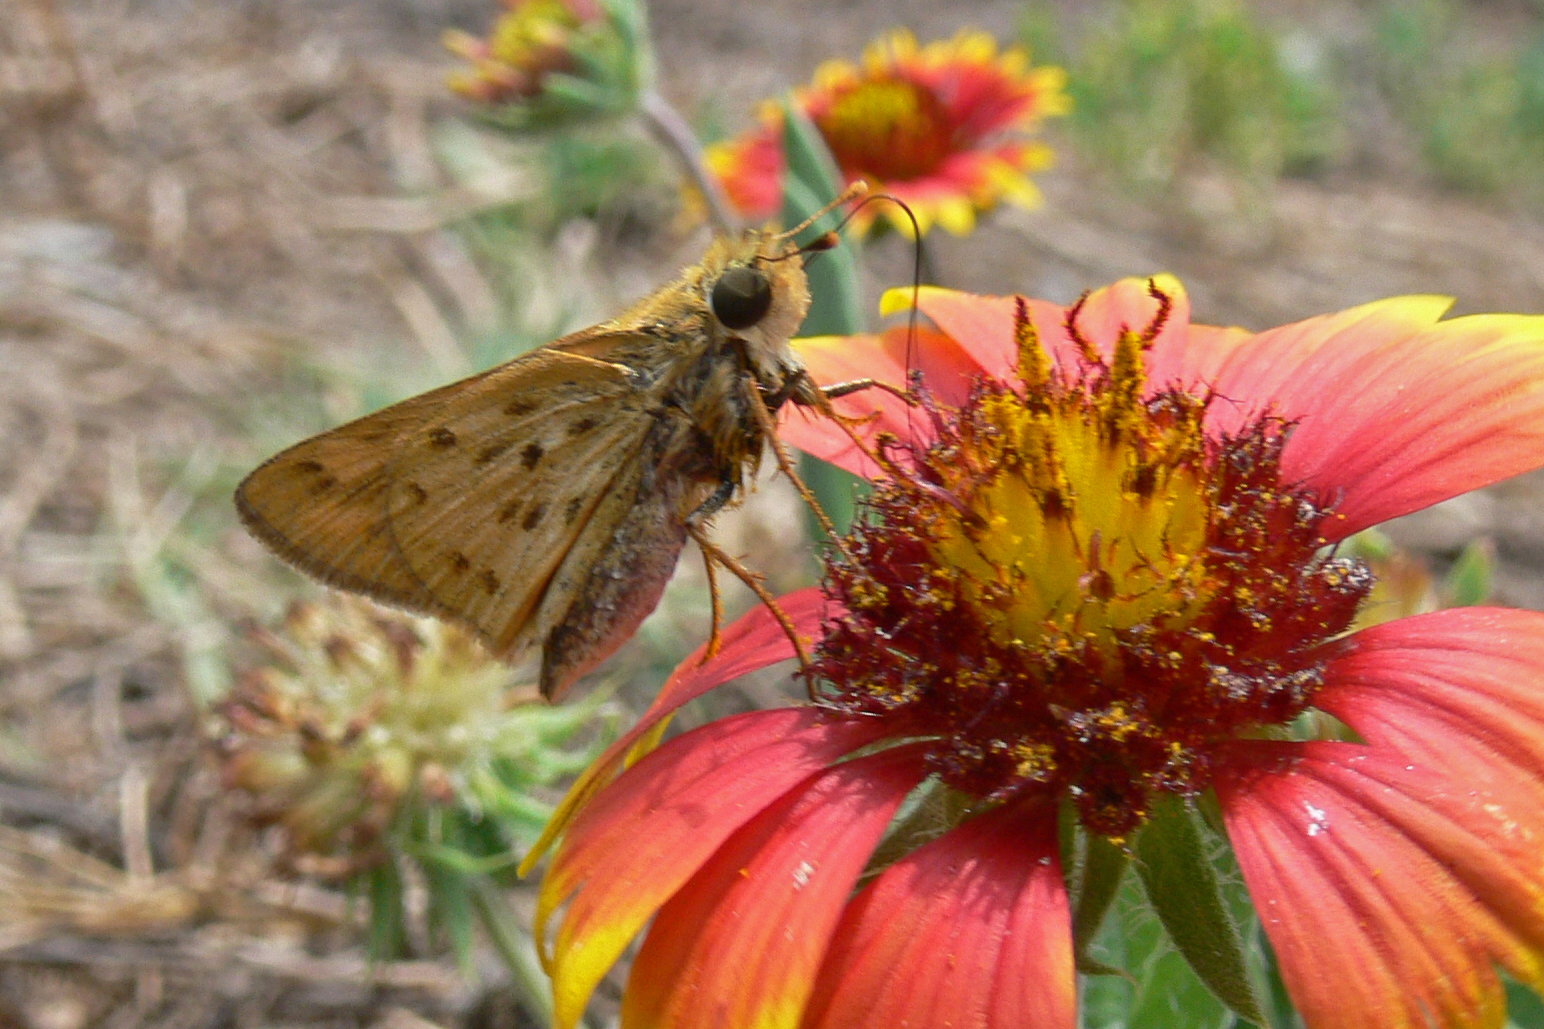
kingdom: Animalia
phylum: Arthropoda
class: Insecta
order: Lepidoptera
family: Hesperiidae
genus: Hylephila
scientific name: Hylephila phyleus
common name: Fiery skipper
